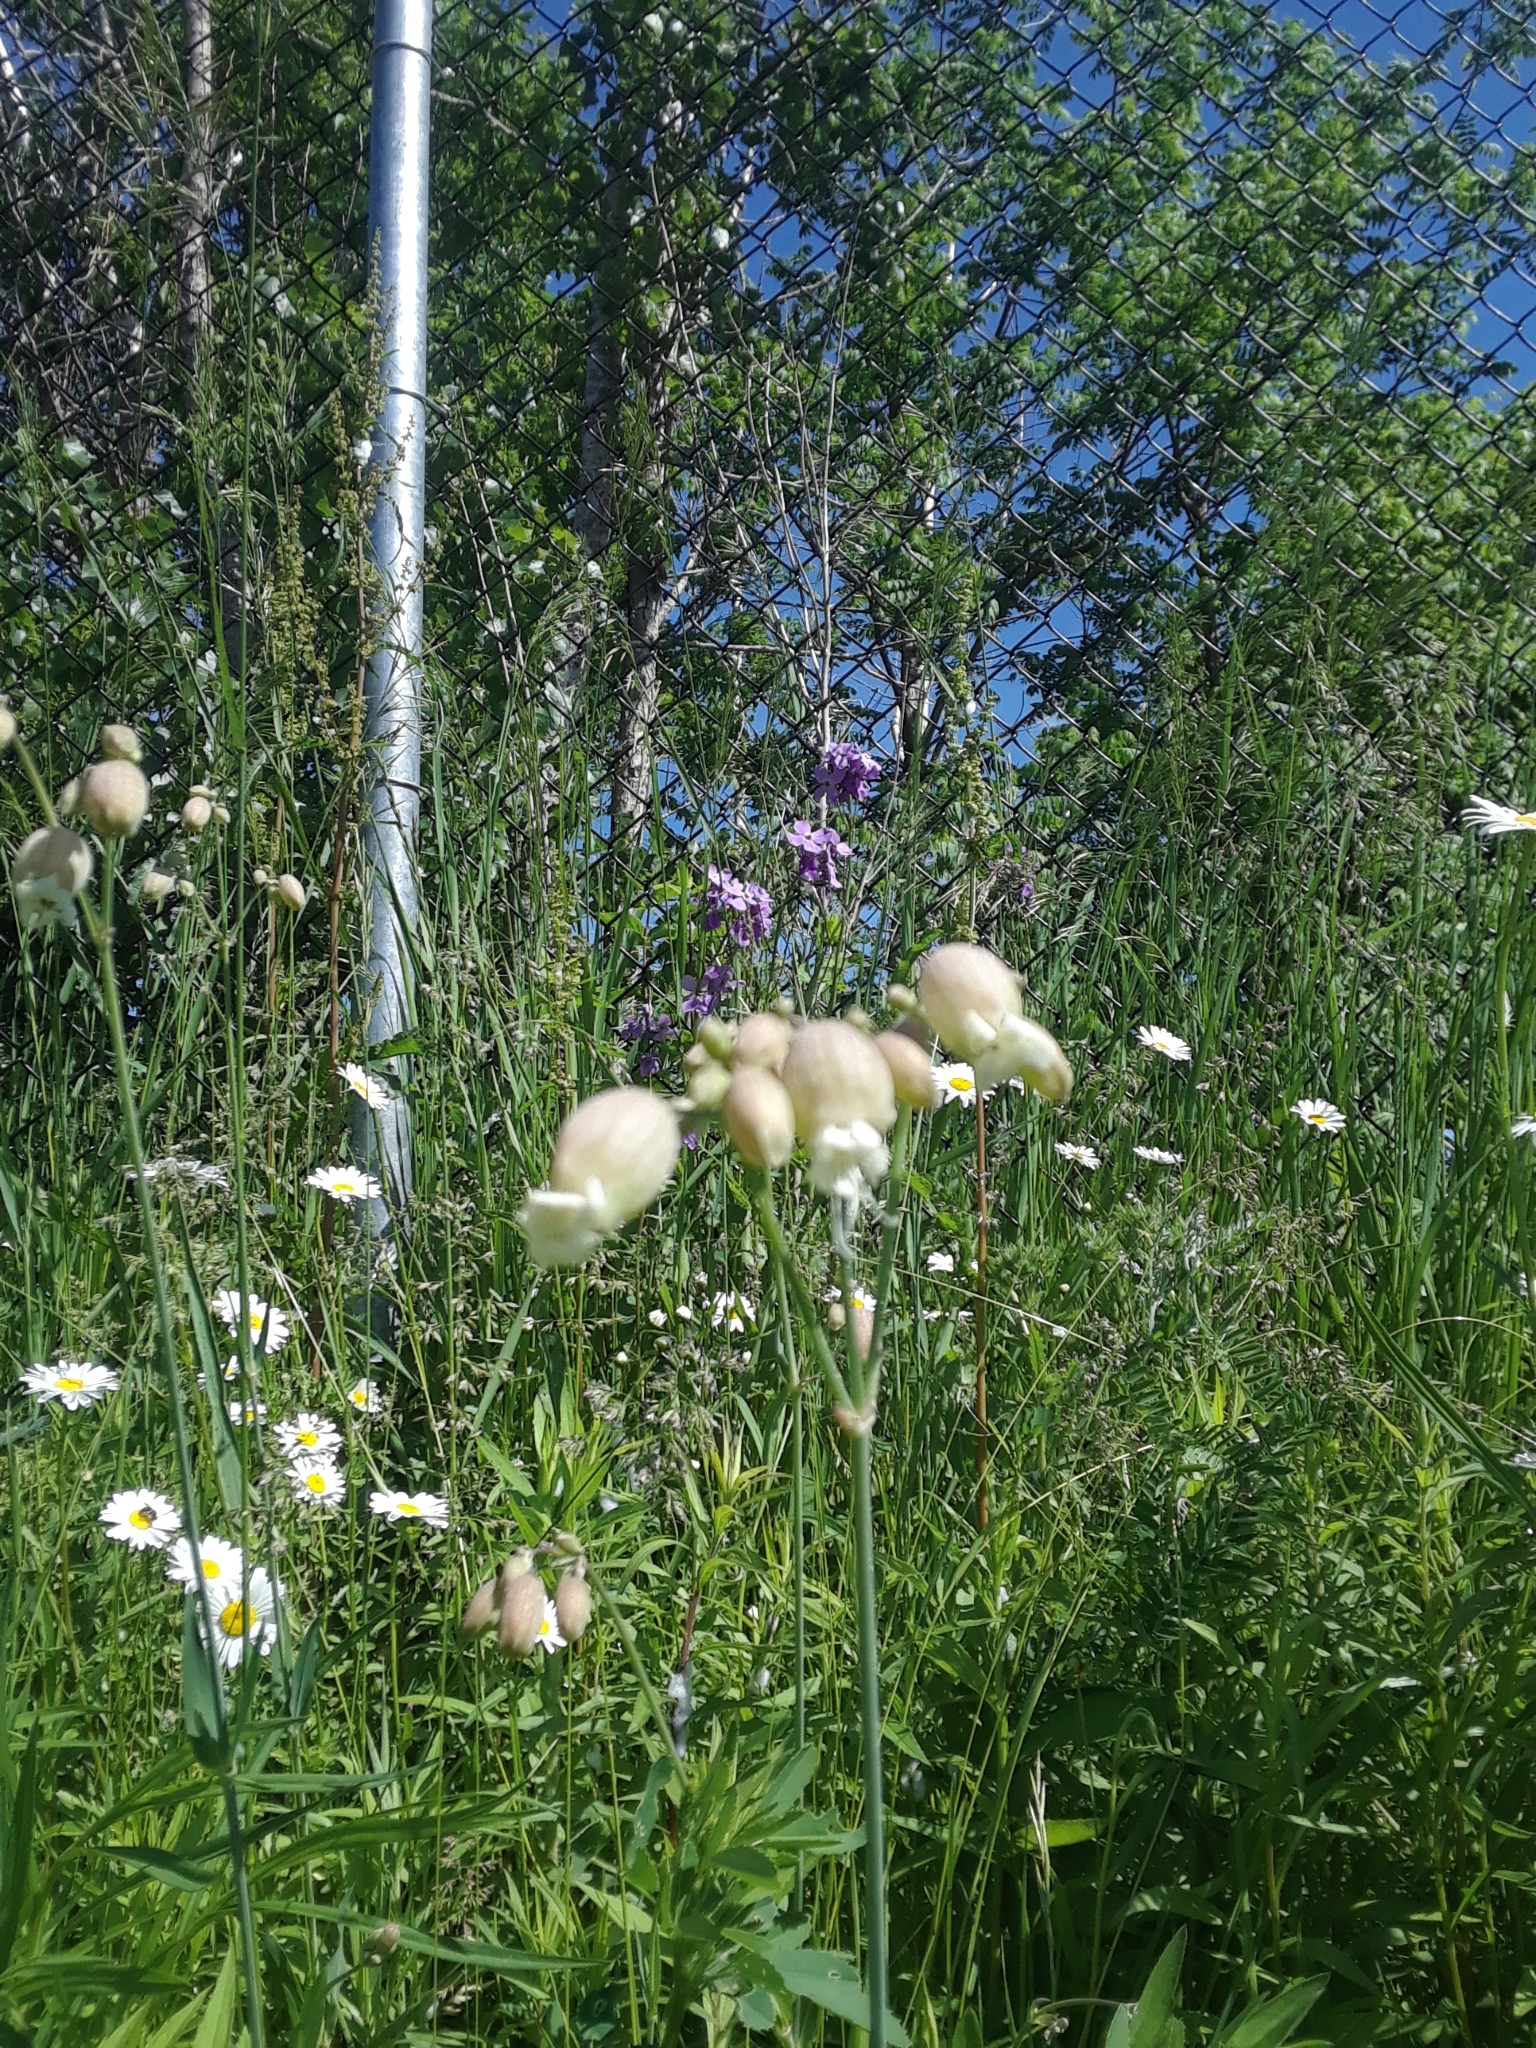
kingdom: Plantae
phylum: Tracheophyta
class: Magnoliopsida
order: Caryophyllales
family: Caryophyllaceae
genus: Silene
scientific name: Silene vulgaris
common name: Bladder campion
